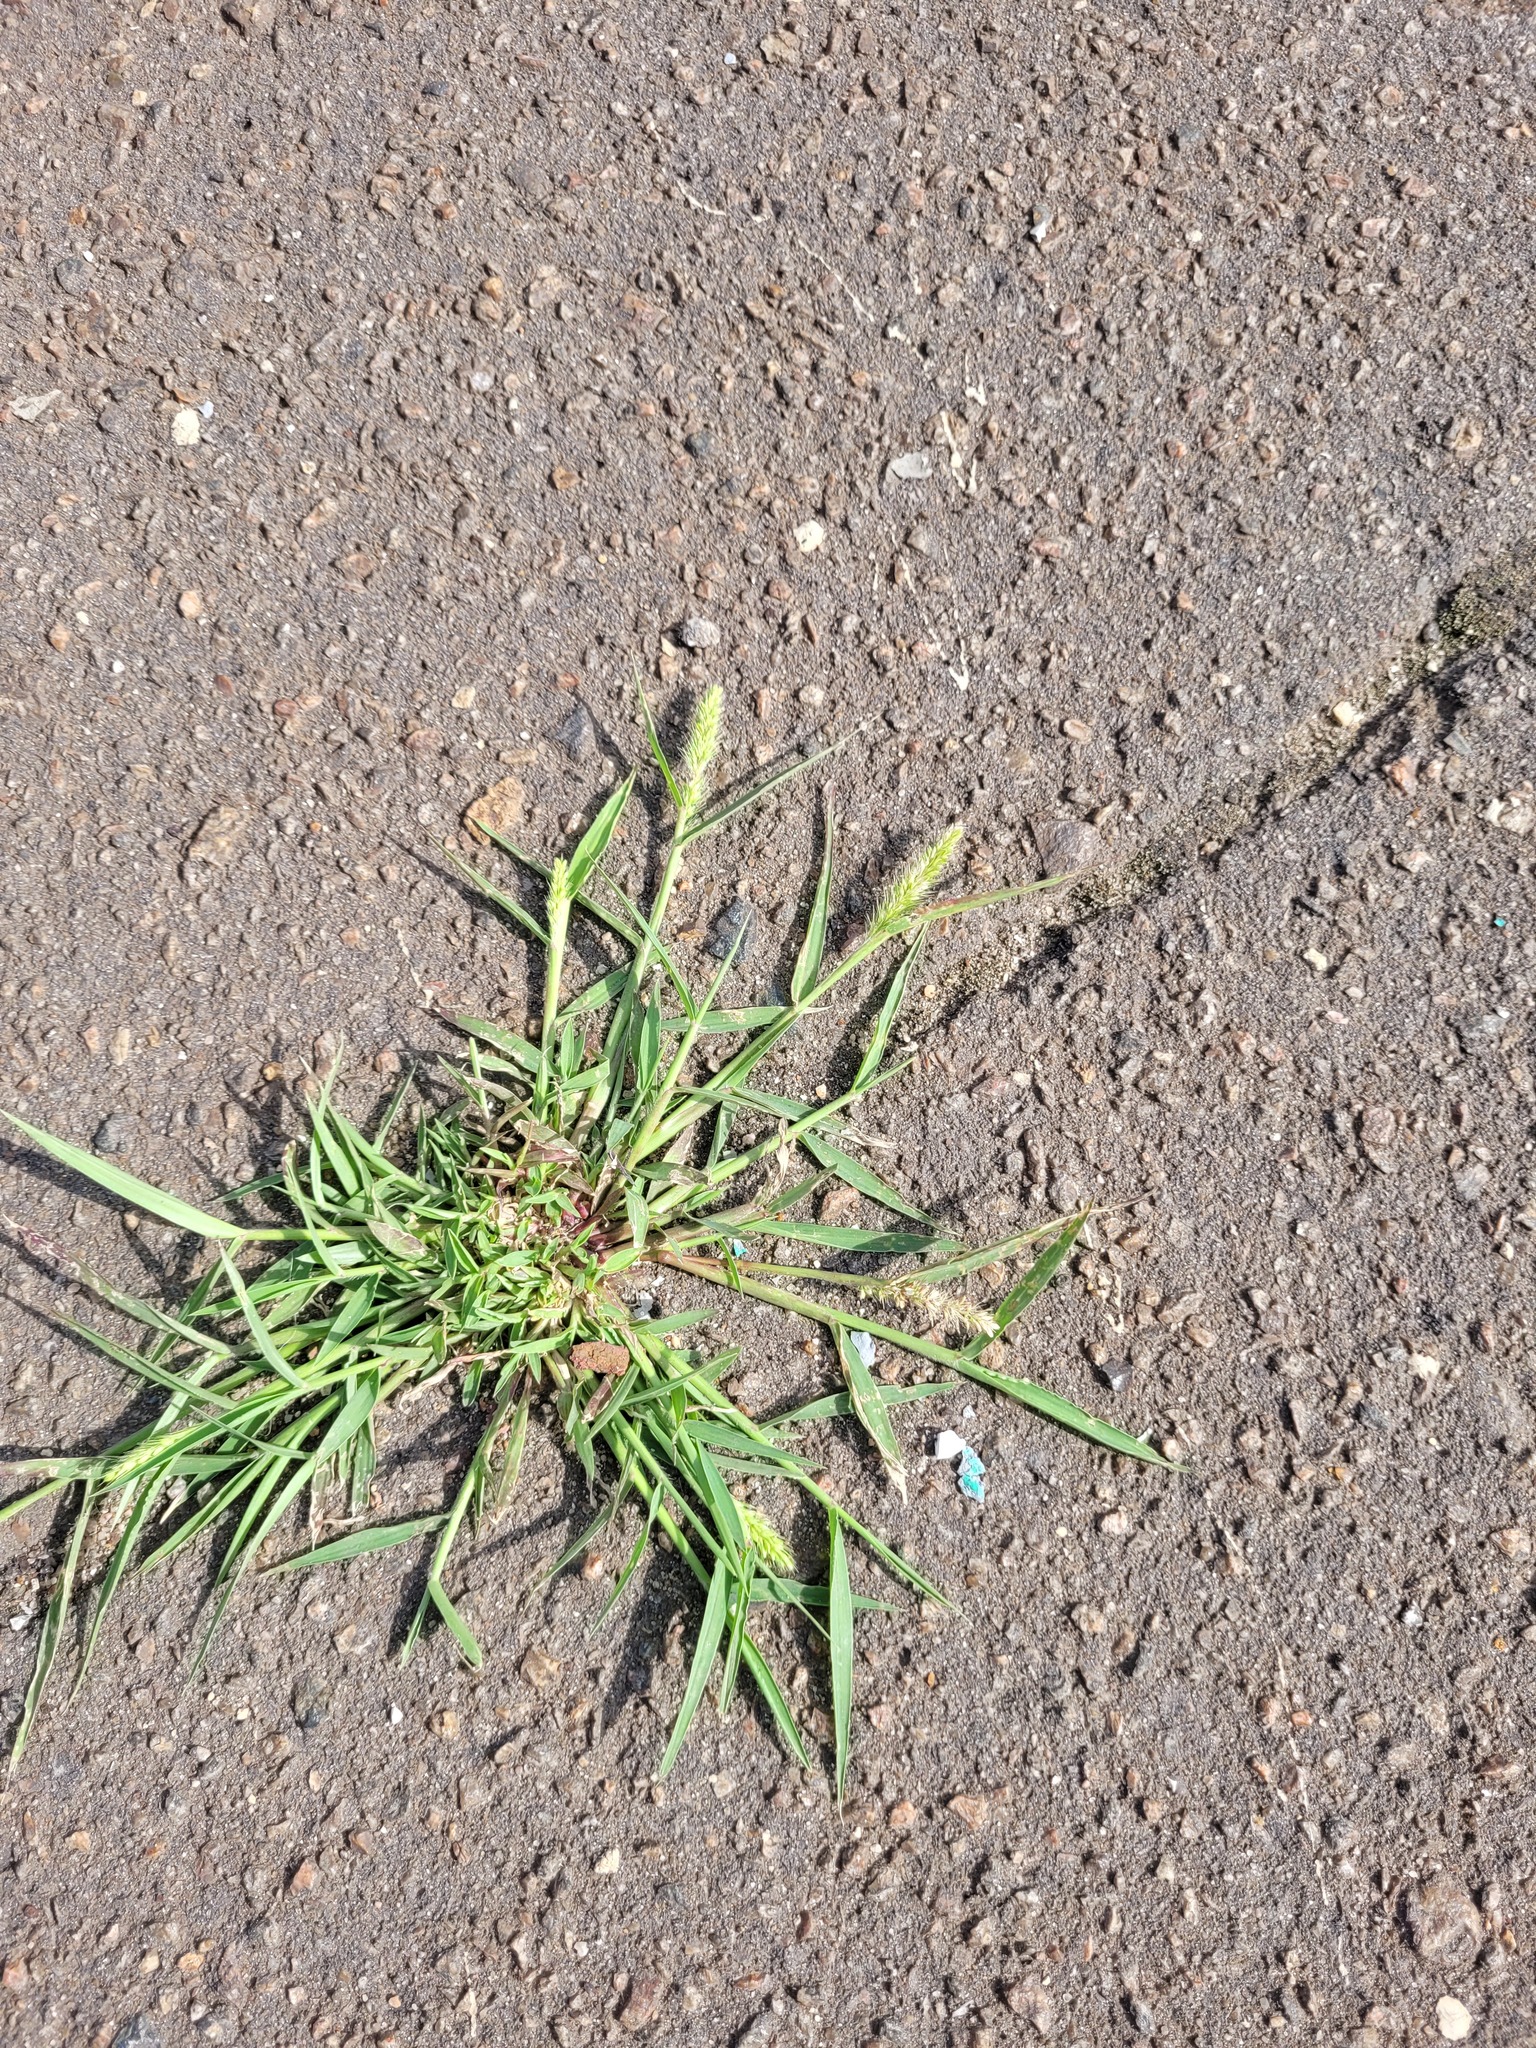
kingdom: Plantae
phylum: Tracheophyta
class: Liliopsida
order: Poales
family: Poaceae
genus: Setaria
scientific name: Setaria viridis
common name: Green bristlegrass
